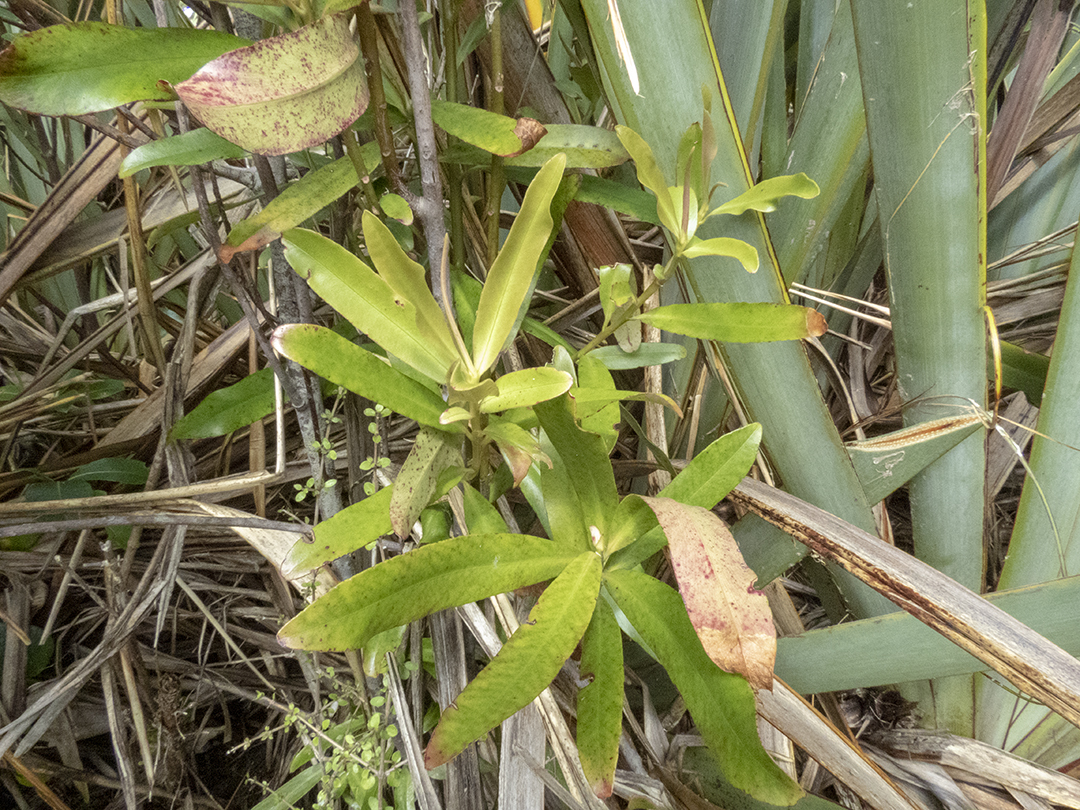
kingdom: Plantae
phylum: Tracheophyta
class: Magnoliopsida
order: Ericales
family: Primulaceae
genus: Myrsine
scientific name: Myrsine salicina
